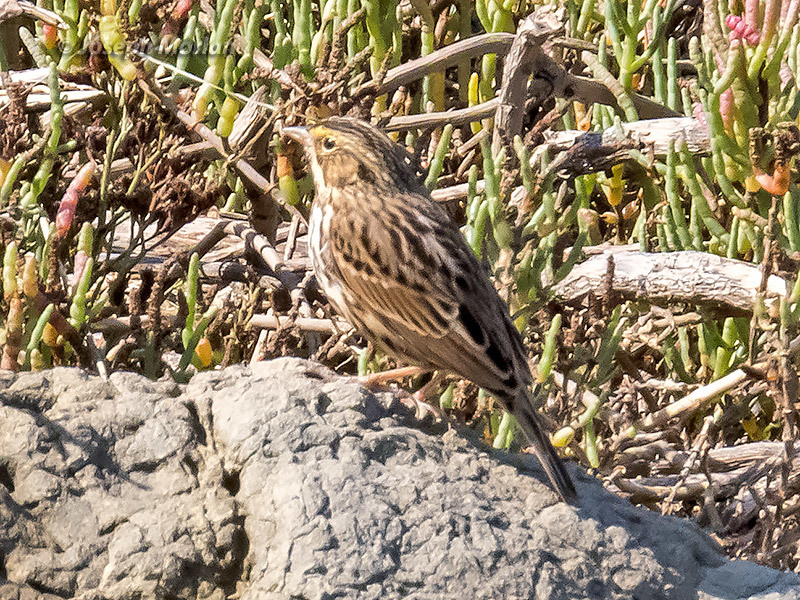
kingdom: Animalia
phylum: Chordata
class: Aves
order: Passeriformes
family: Passerellidae
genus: Passerculus
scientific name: Passerculus sandwichensis
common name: Savannah sparrow
